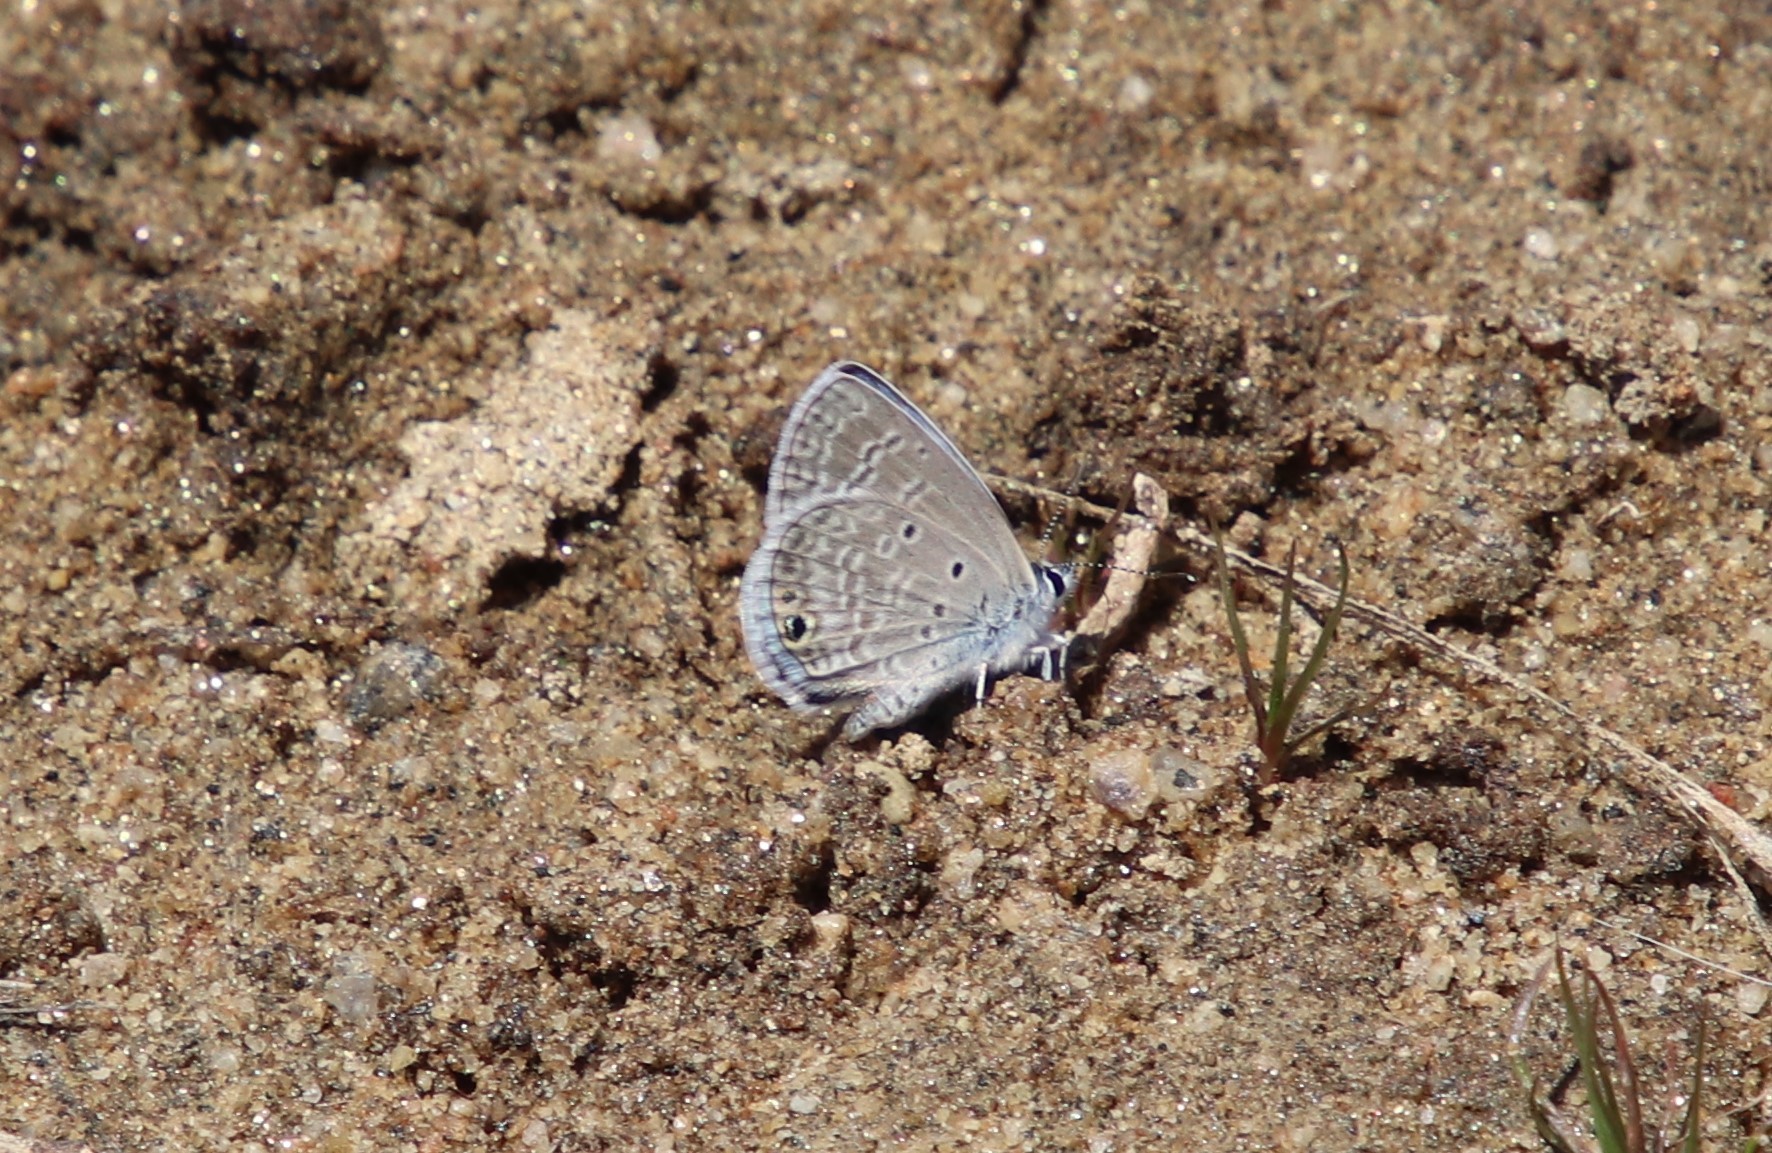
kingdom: Animalia
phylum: Arthropoda
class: Insecta
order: Lepidoptera
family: Lycaenidae
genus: Hemiargus
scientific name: Hemiargus ceraunus
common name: Ceraunus blue
